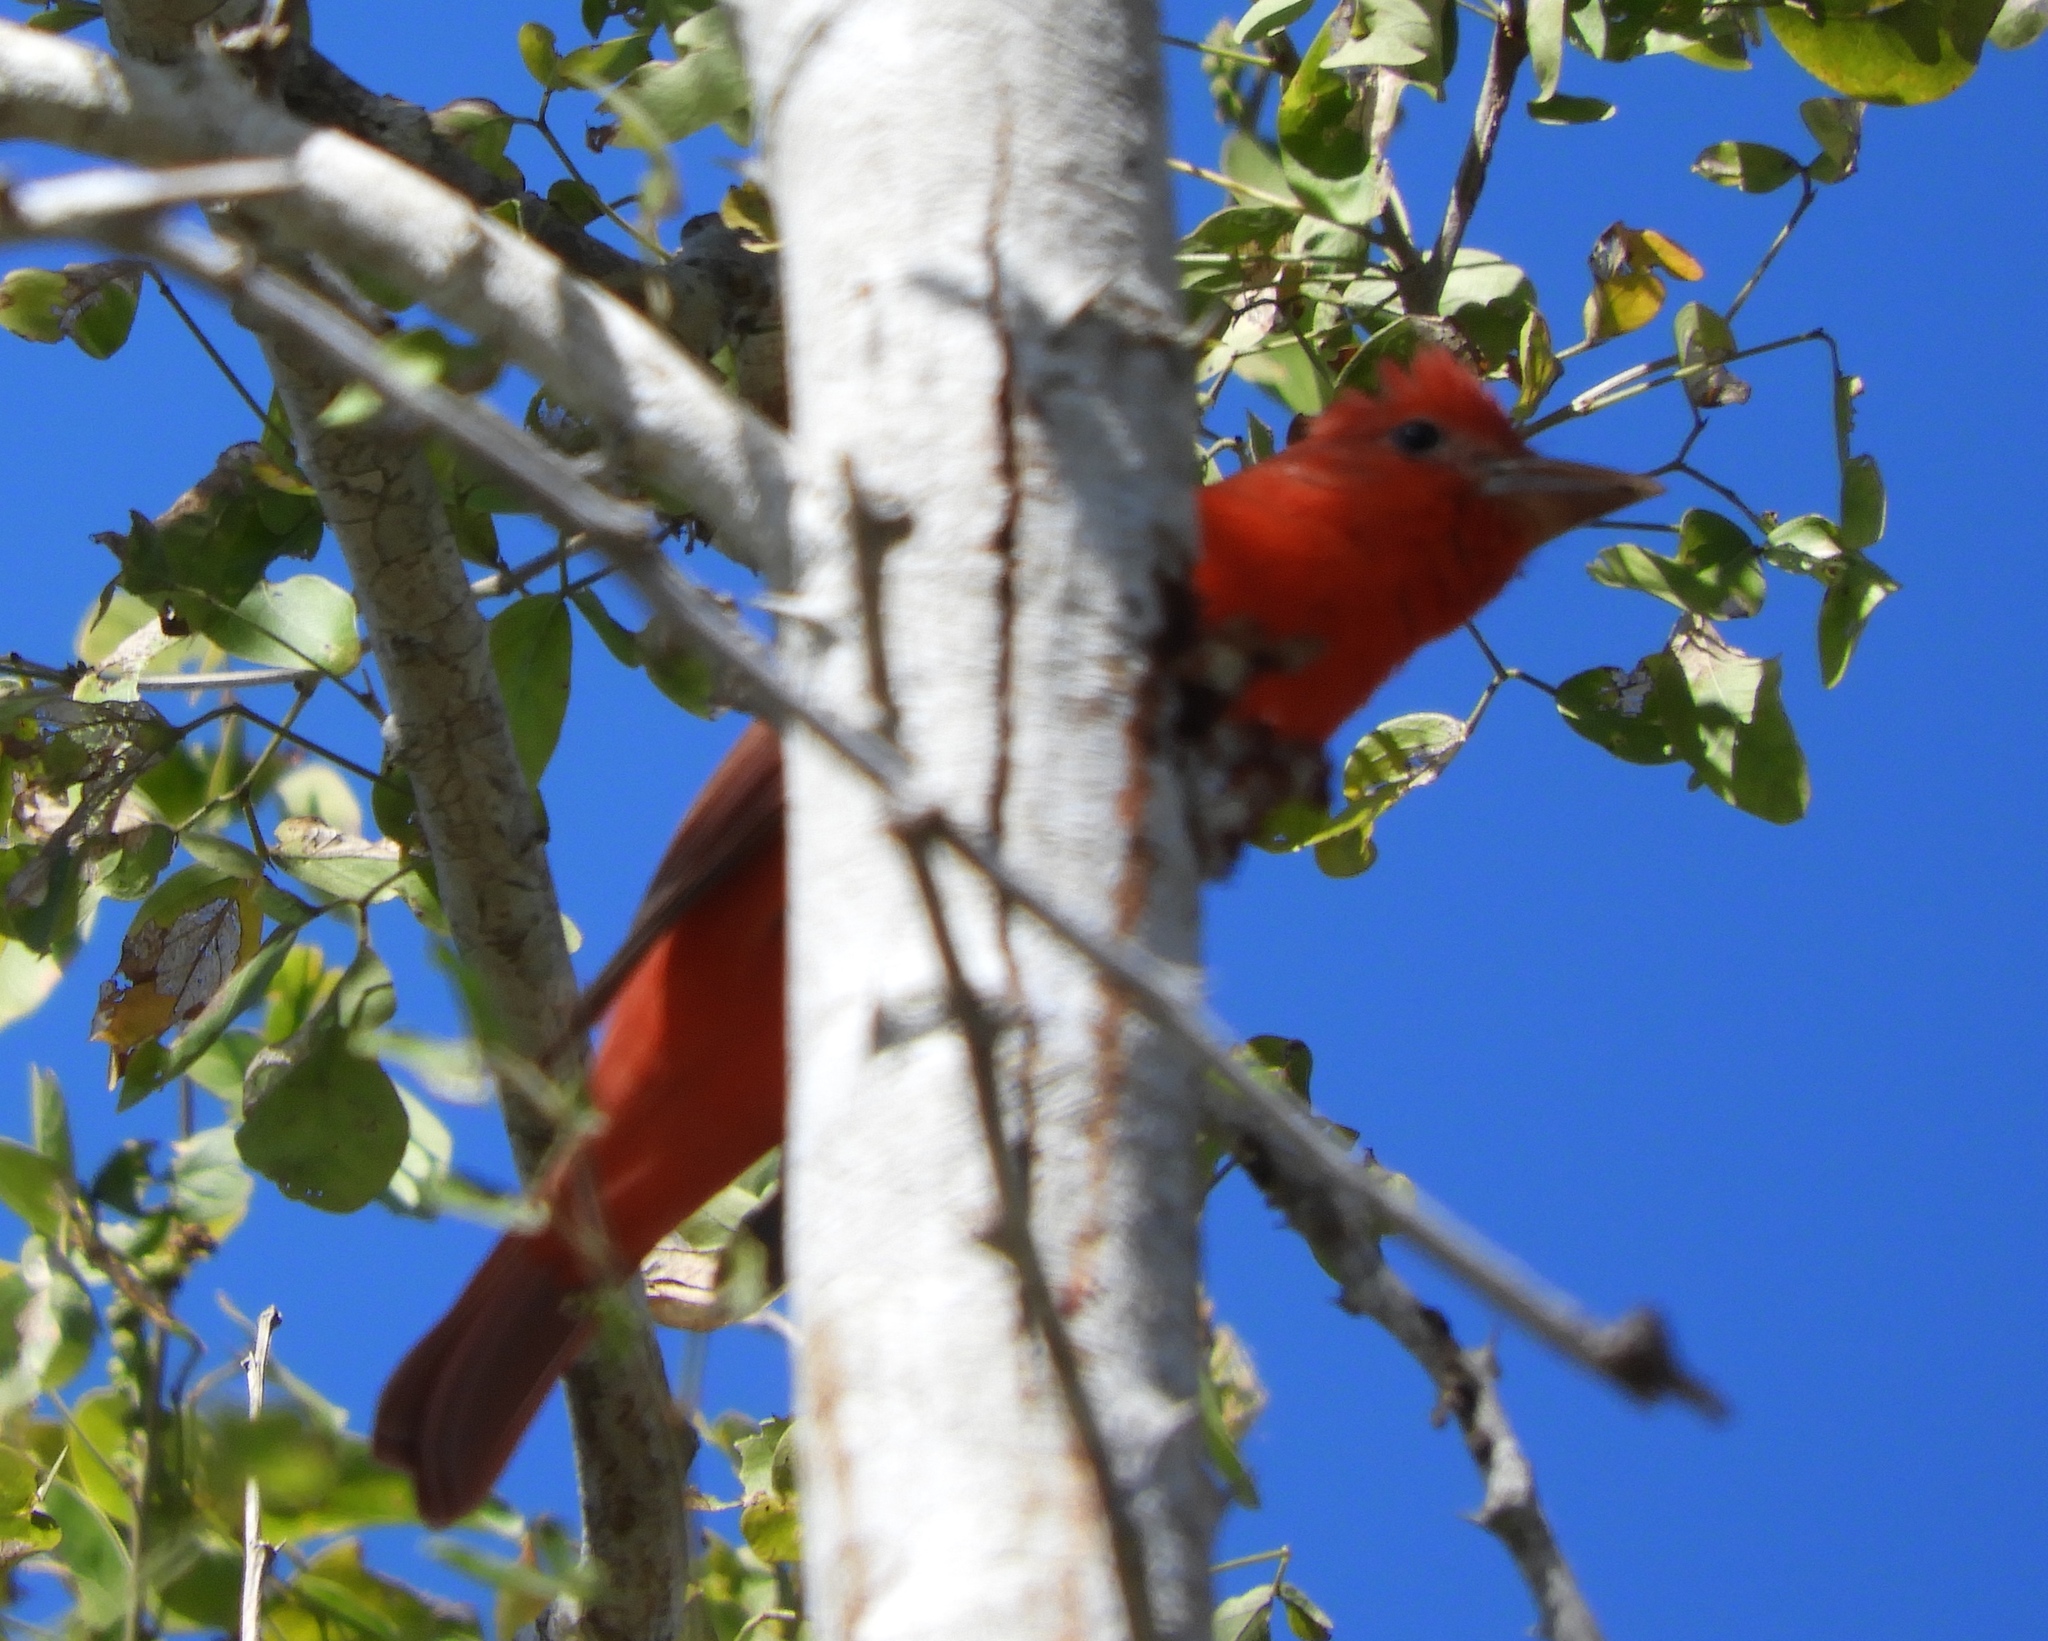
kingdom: Animalia
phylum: Chordata
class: Aves
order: Passeriformes
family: Cardinalidae
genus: Piranga
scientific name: Piranga rubra
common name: Summer tanager
